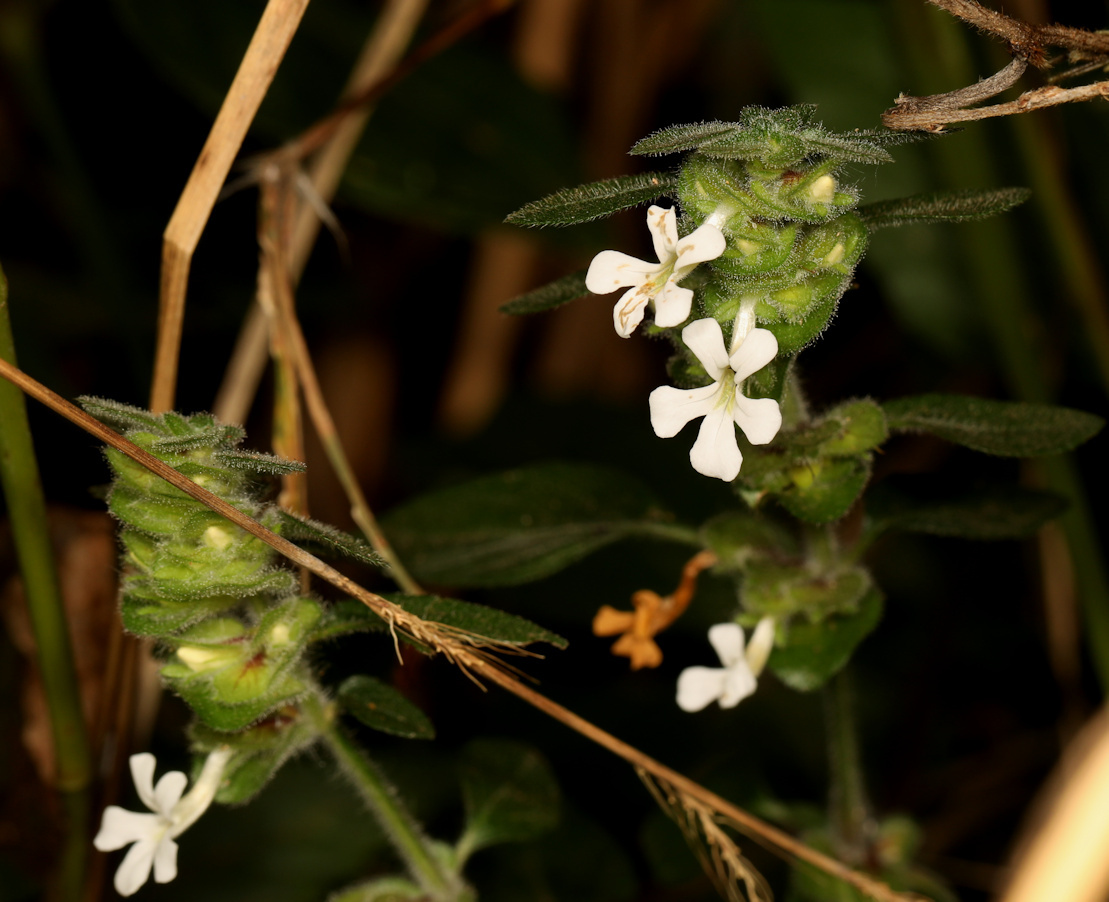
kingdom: Plantae
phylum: Tracheophyta
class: Magnoliopsida
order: Lamiales
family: Acanthaceae
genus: Phaulopsis
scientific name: Phaulopsis imbricata
